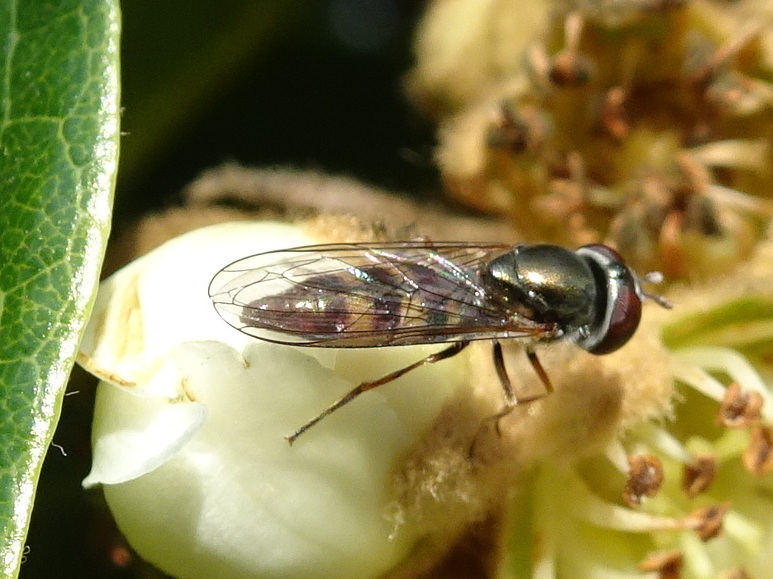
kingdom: Animalia
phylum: Arthropoda
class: Insecta
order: Diptera
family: Syrphidae
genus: Platycheirus
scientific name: Platycheirus trichopus
